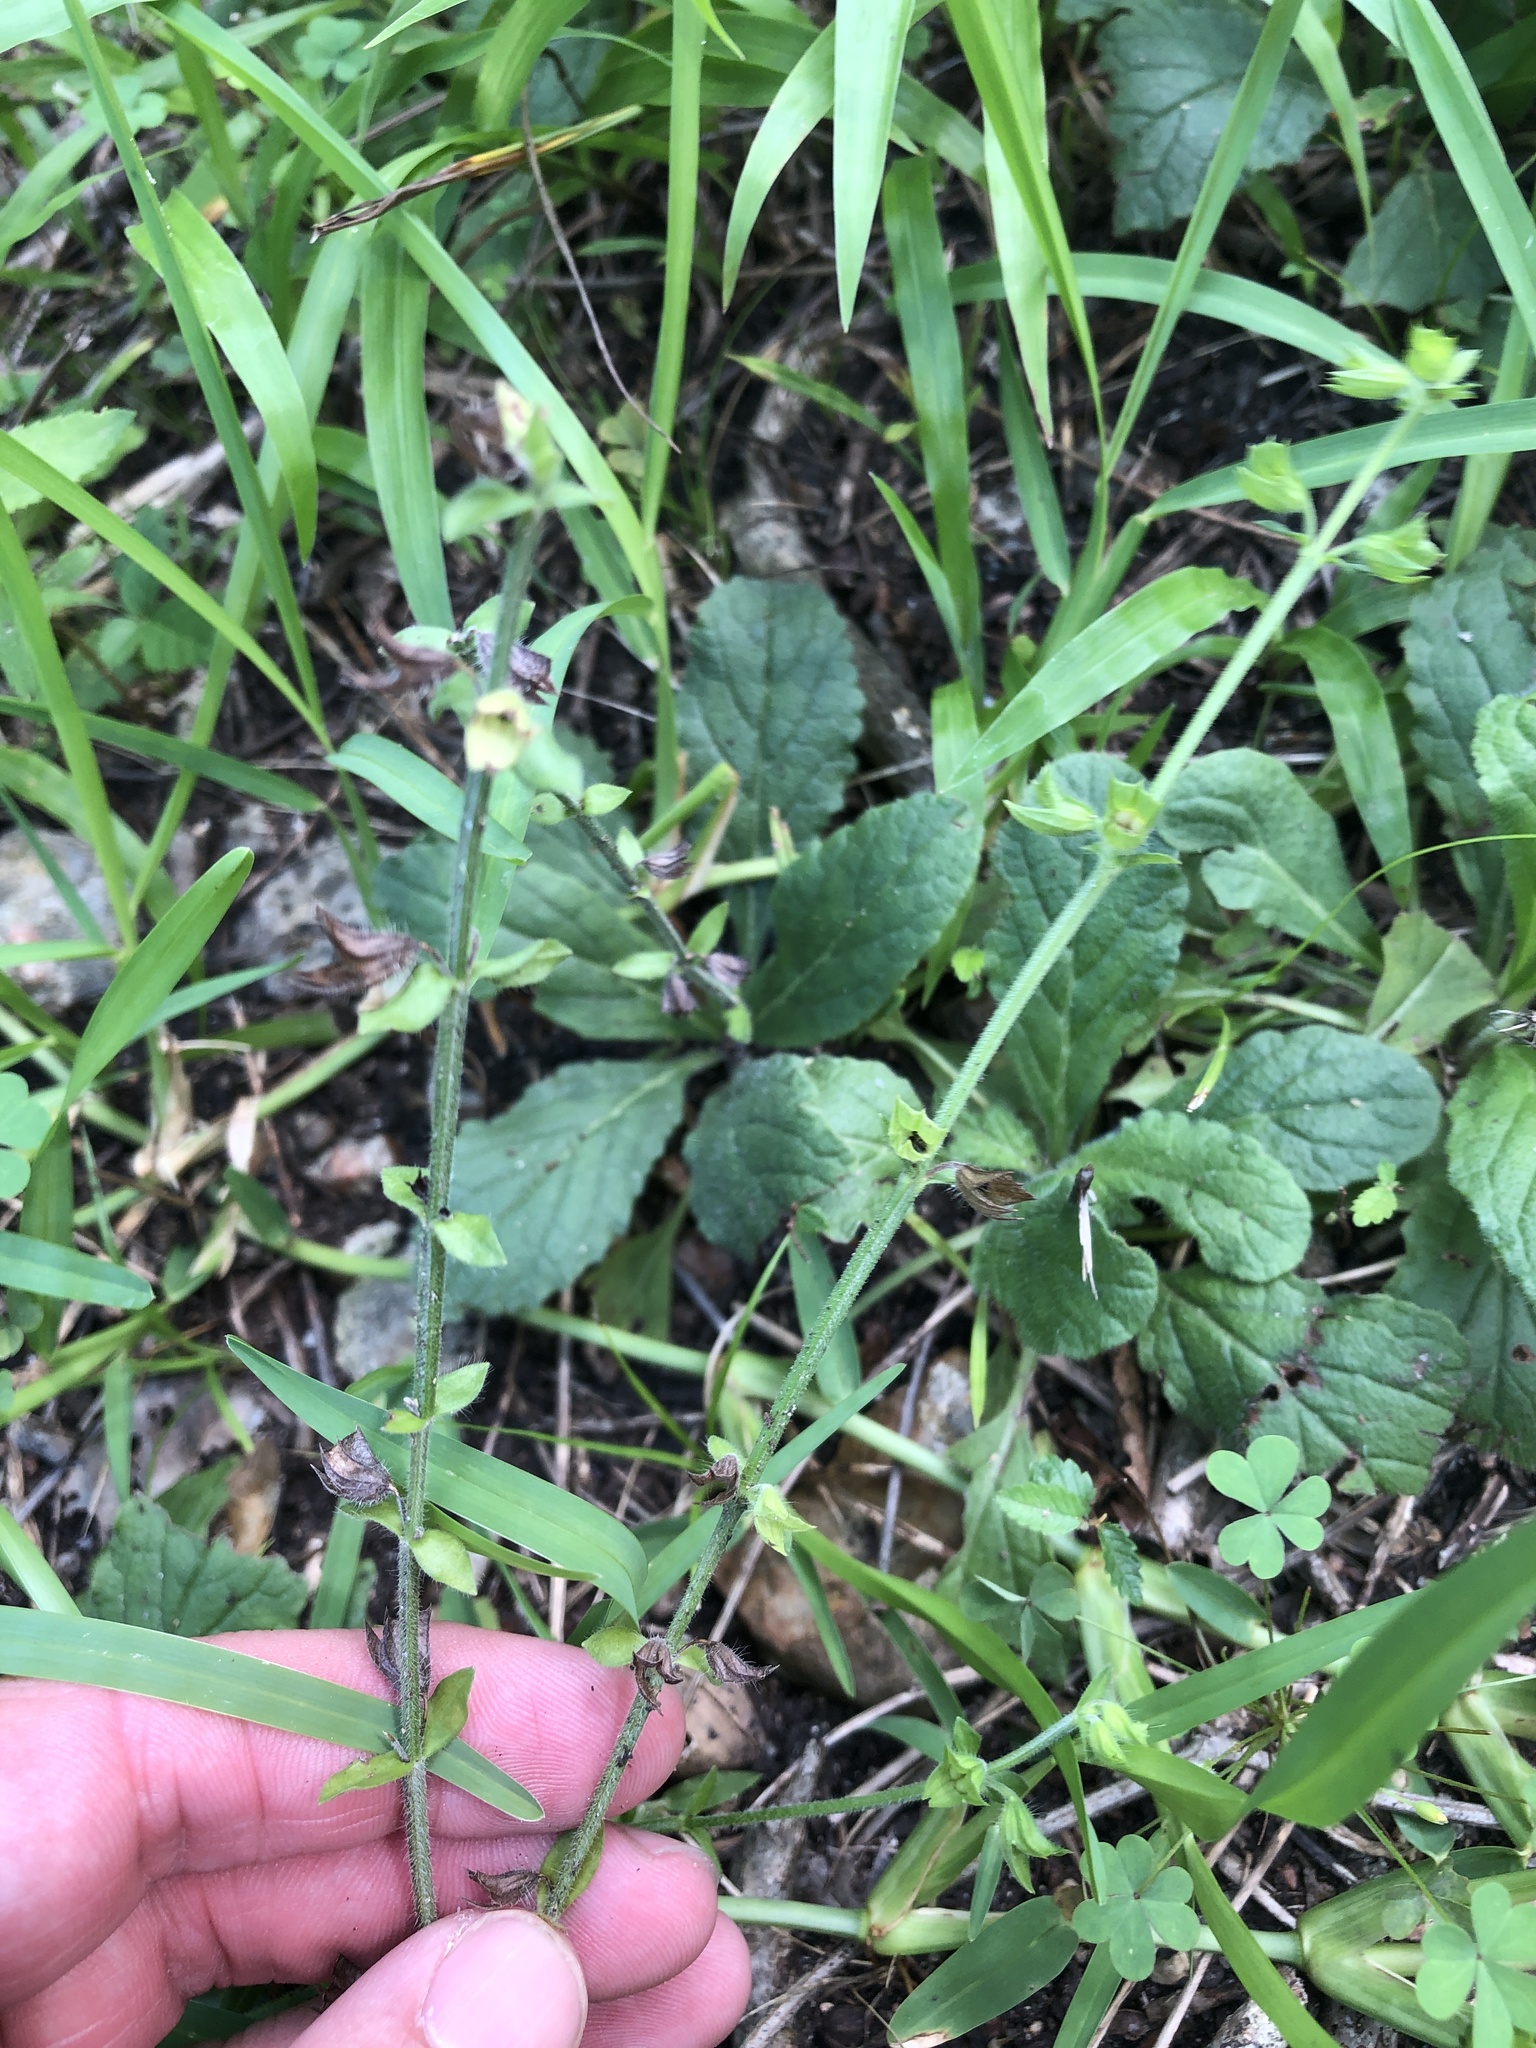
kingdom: Plantae
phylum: Tracheophyta
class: Magnoliopsida
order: Lamiales
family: Lamiaceae
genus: Salvia
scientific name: Salvia lyrata
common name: Cancerweed
